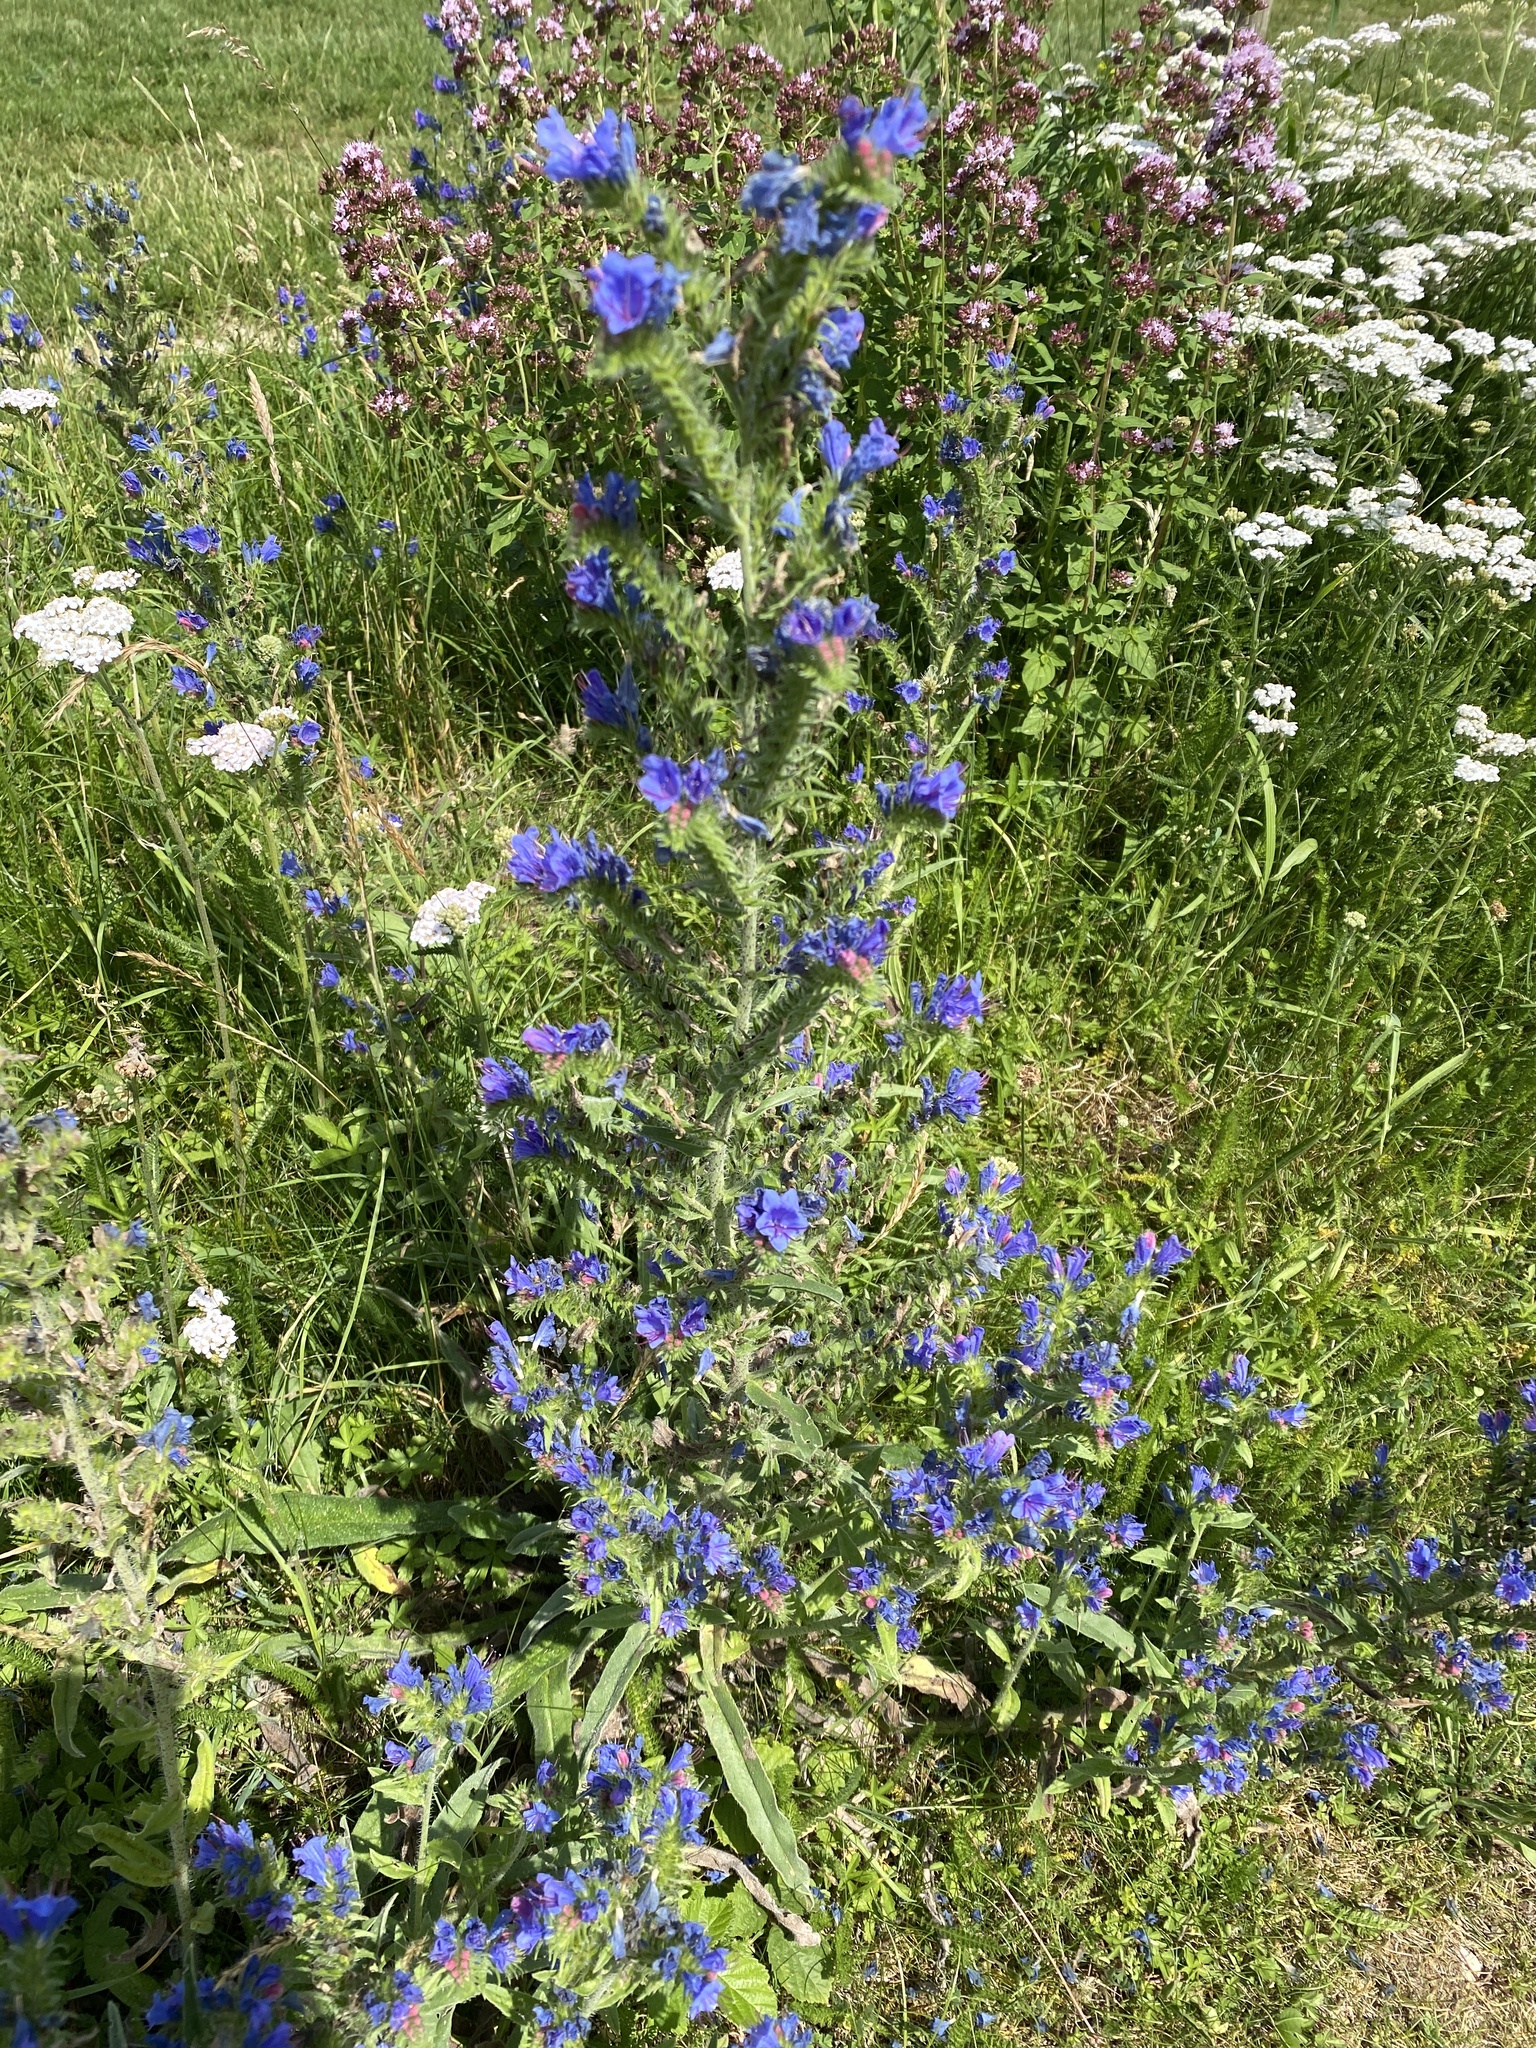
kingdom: Plantae
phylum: Tracheophyta
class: Magnoliopsida
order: Boraginales
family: Boraginaceae
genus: Echium
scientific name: Echium vulgare
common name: Common viper's bugloss
